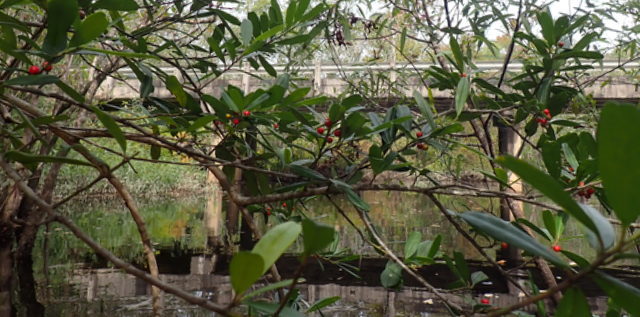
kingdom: Plantae
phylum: Tracheophyta
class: Magnoliopsida
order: Aquifoliales
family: Aquifoliaceae
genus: Ilex
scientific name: Ilex cassine
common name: Dahoon
